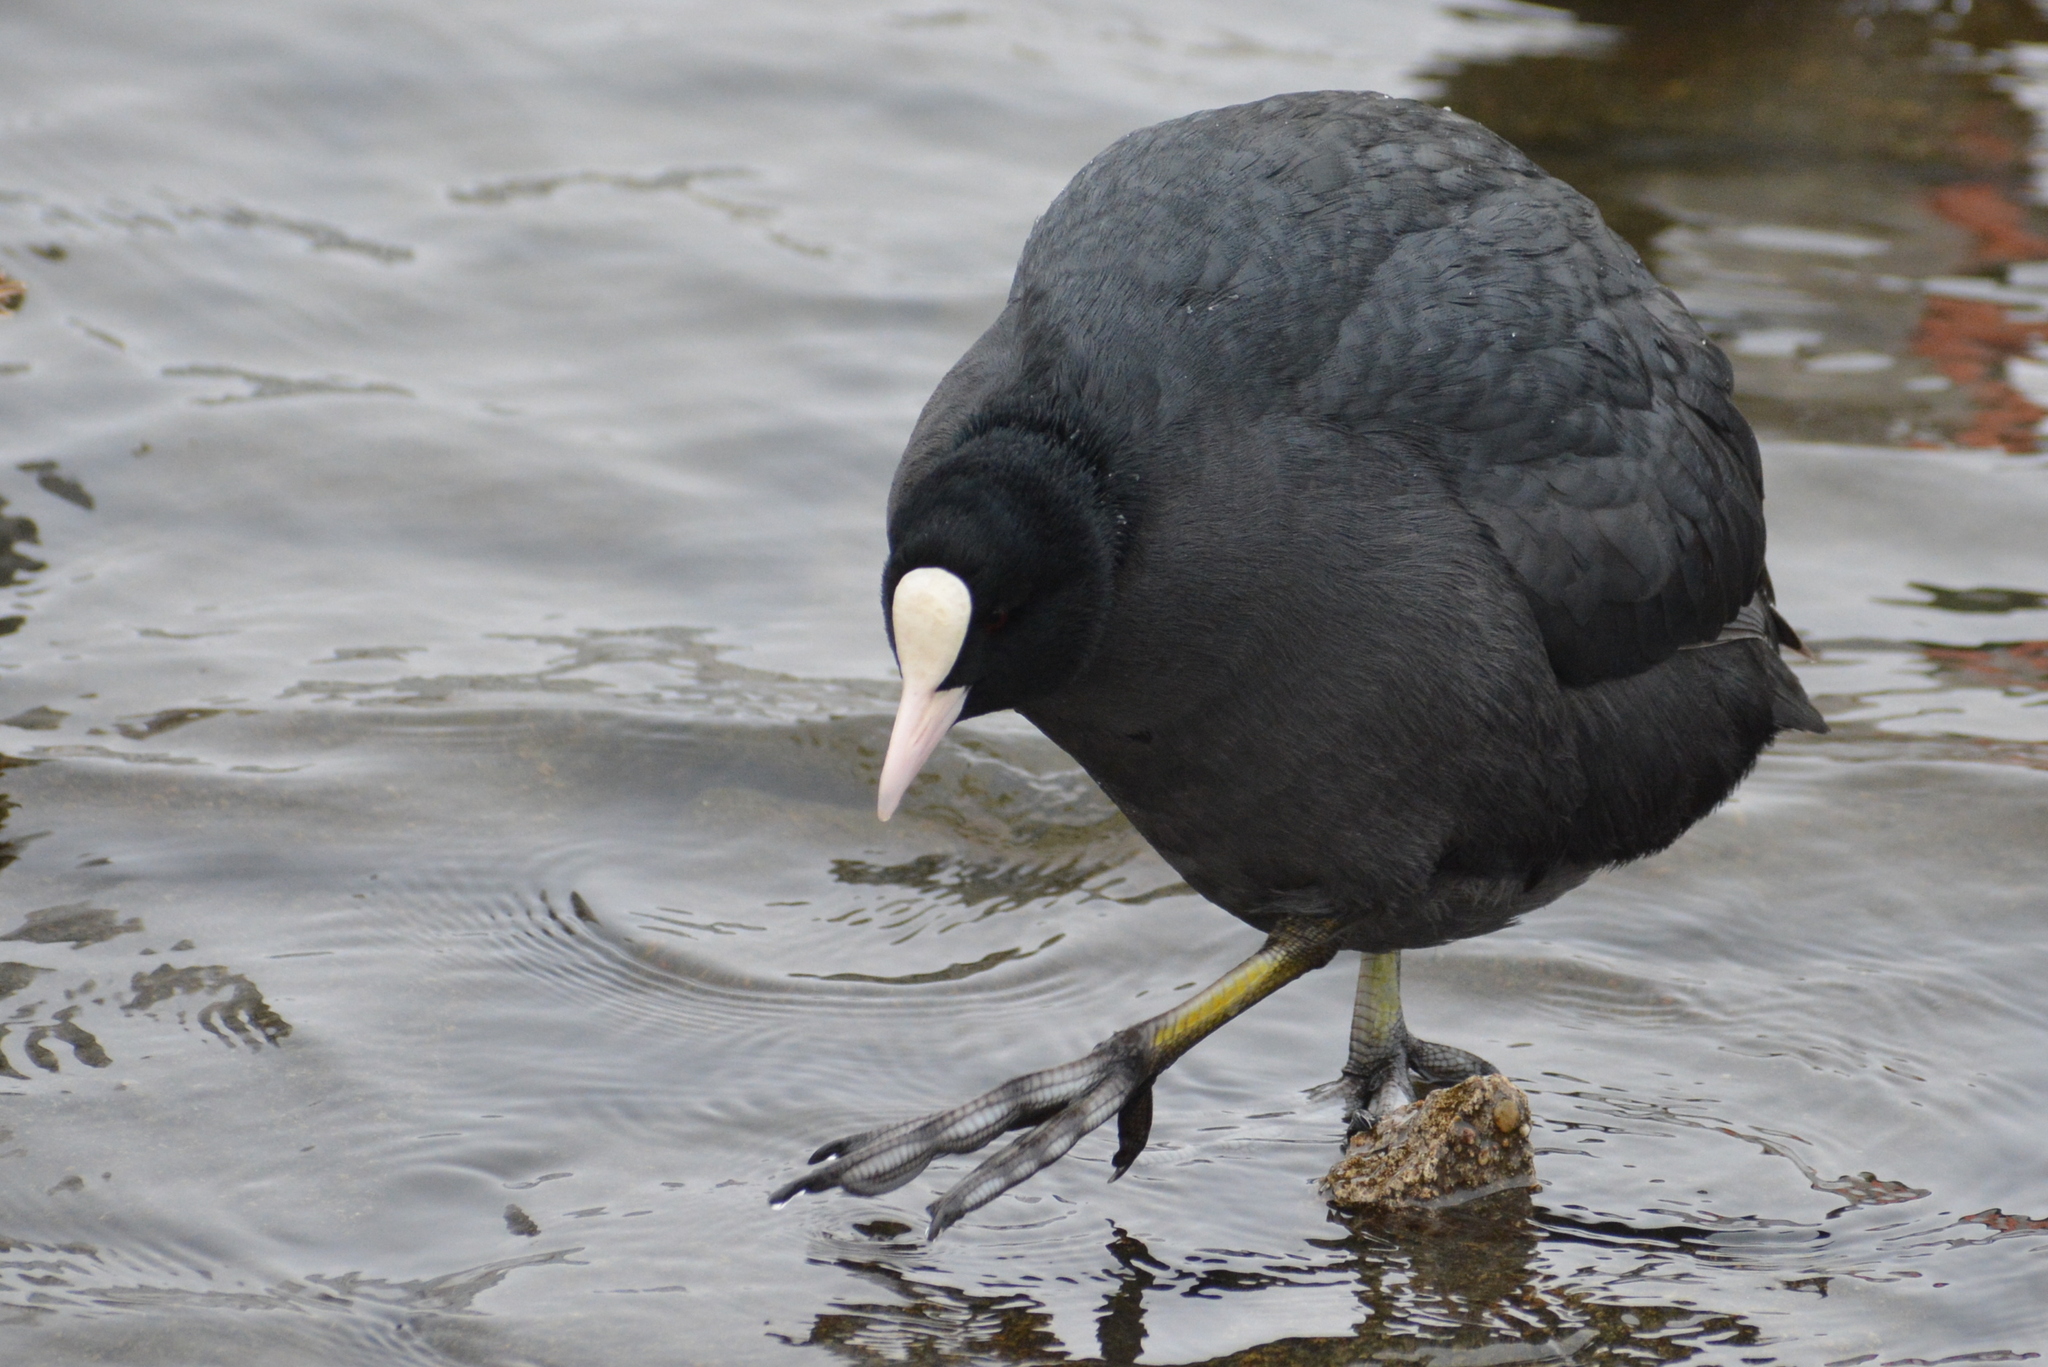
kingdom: Animalia
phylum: Chordata
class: Aves
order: Gruiformes
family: Rallidae
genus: Fulica
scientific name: Fulica atra
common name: Eurasian coot
